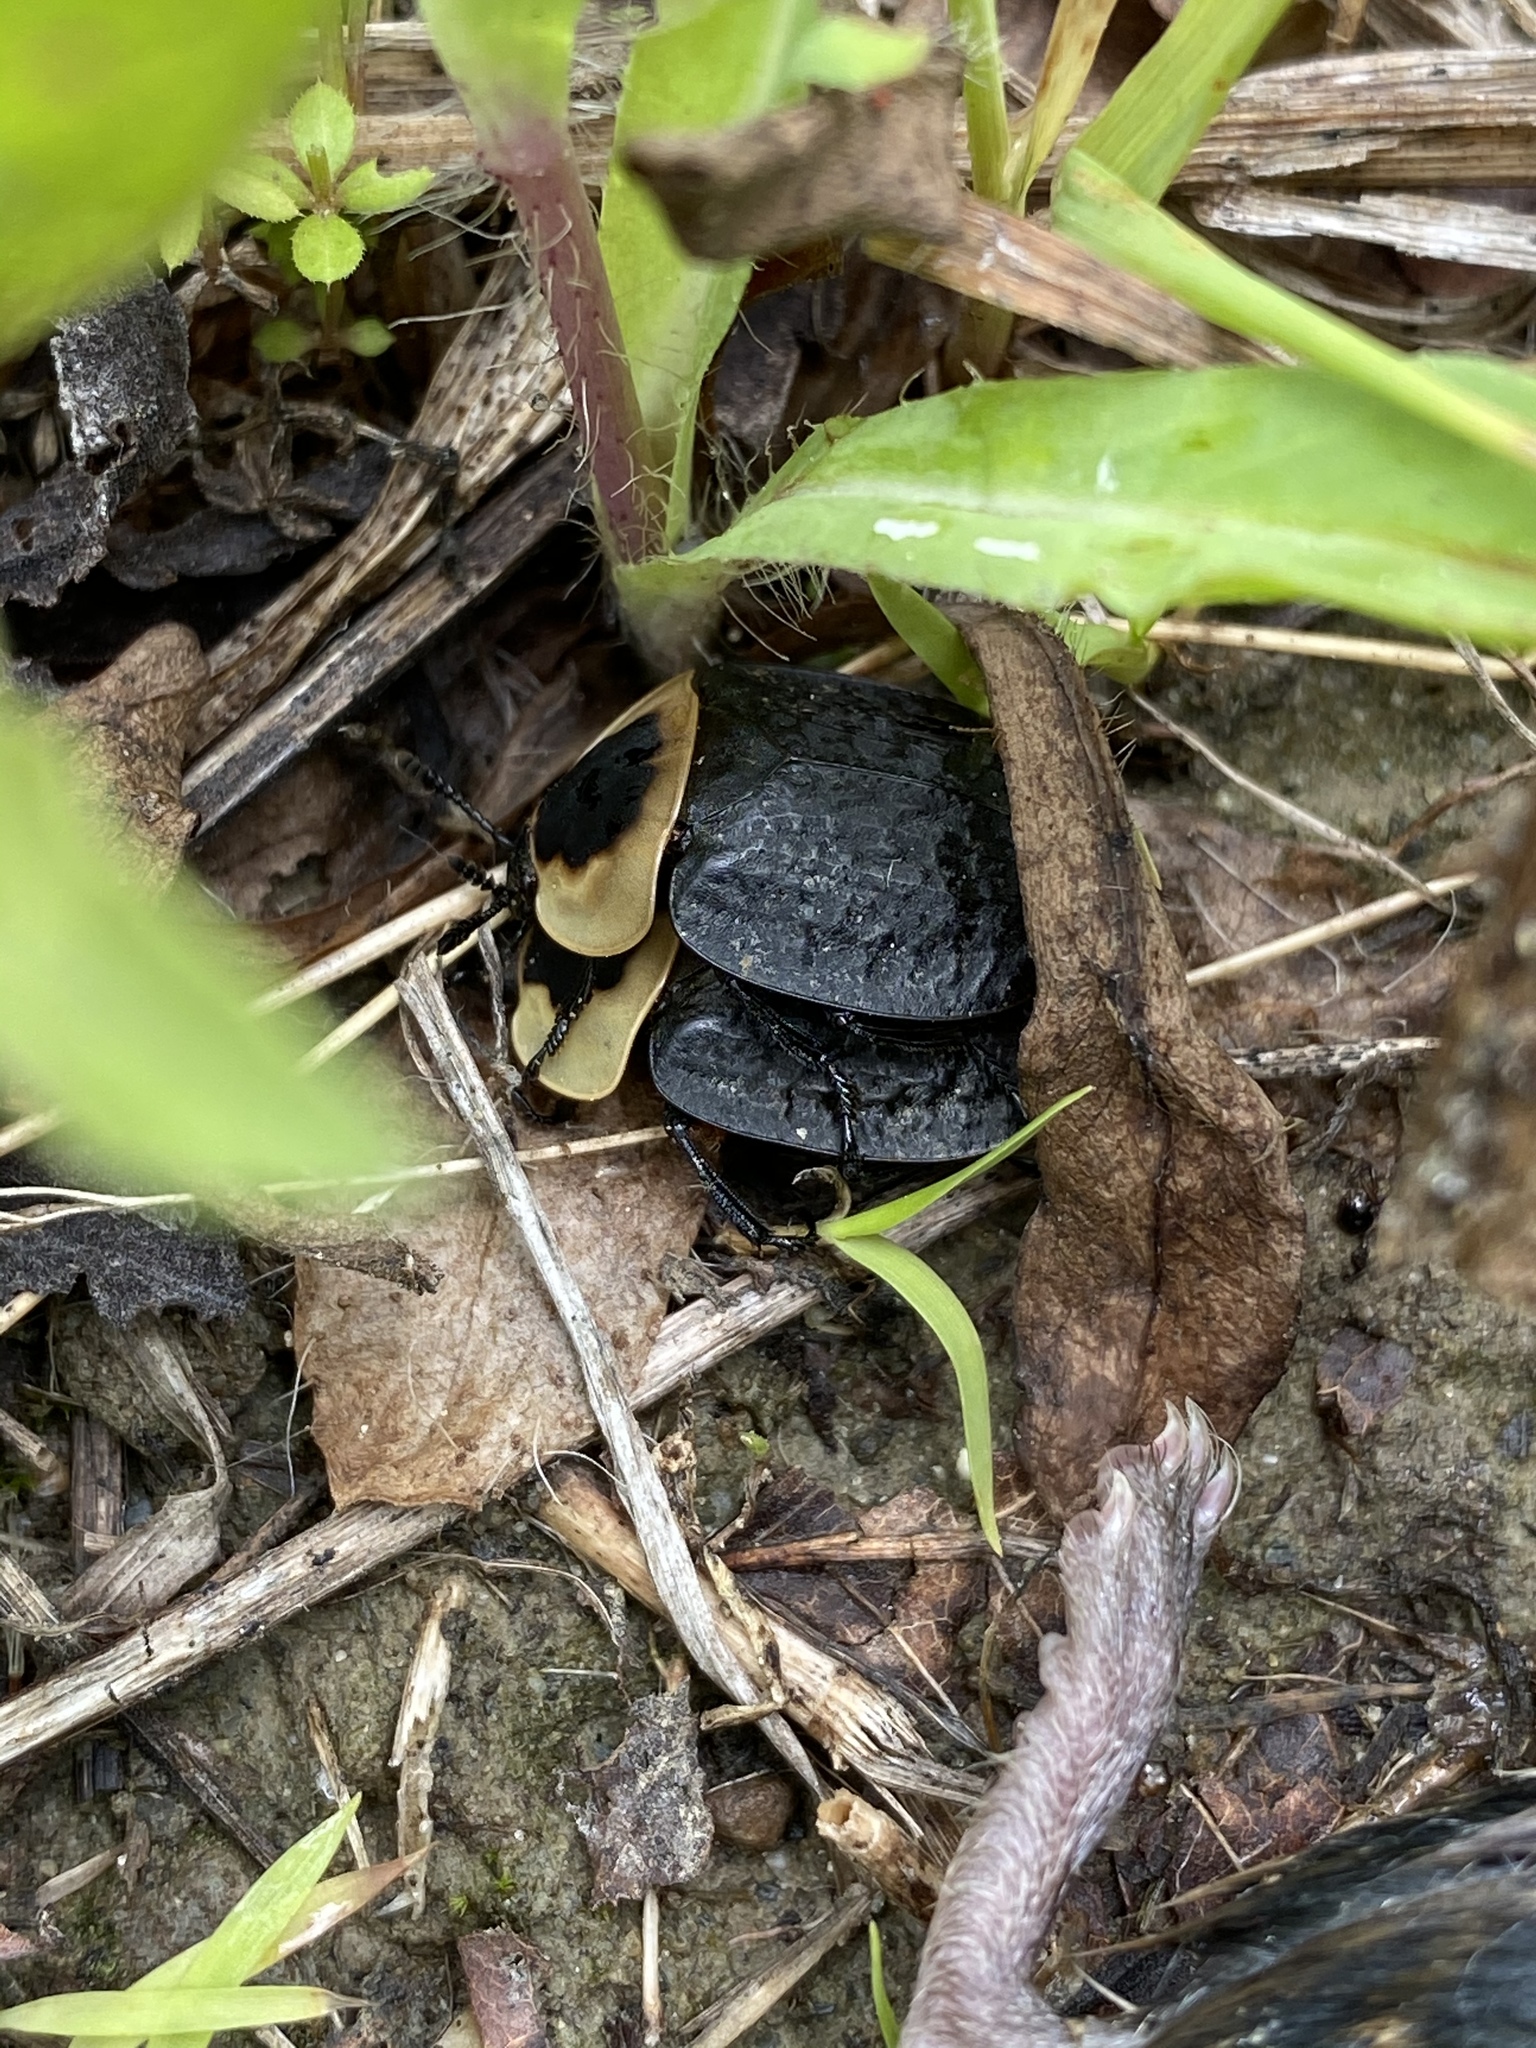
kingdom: Animalia
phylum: Arthropoda
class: Insecta
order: Coleoptera
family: Staphylinidae
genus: Necrophila
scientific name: Necrophila americana
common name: American carrion beetle
